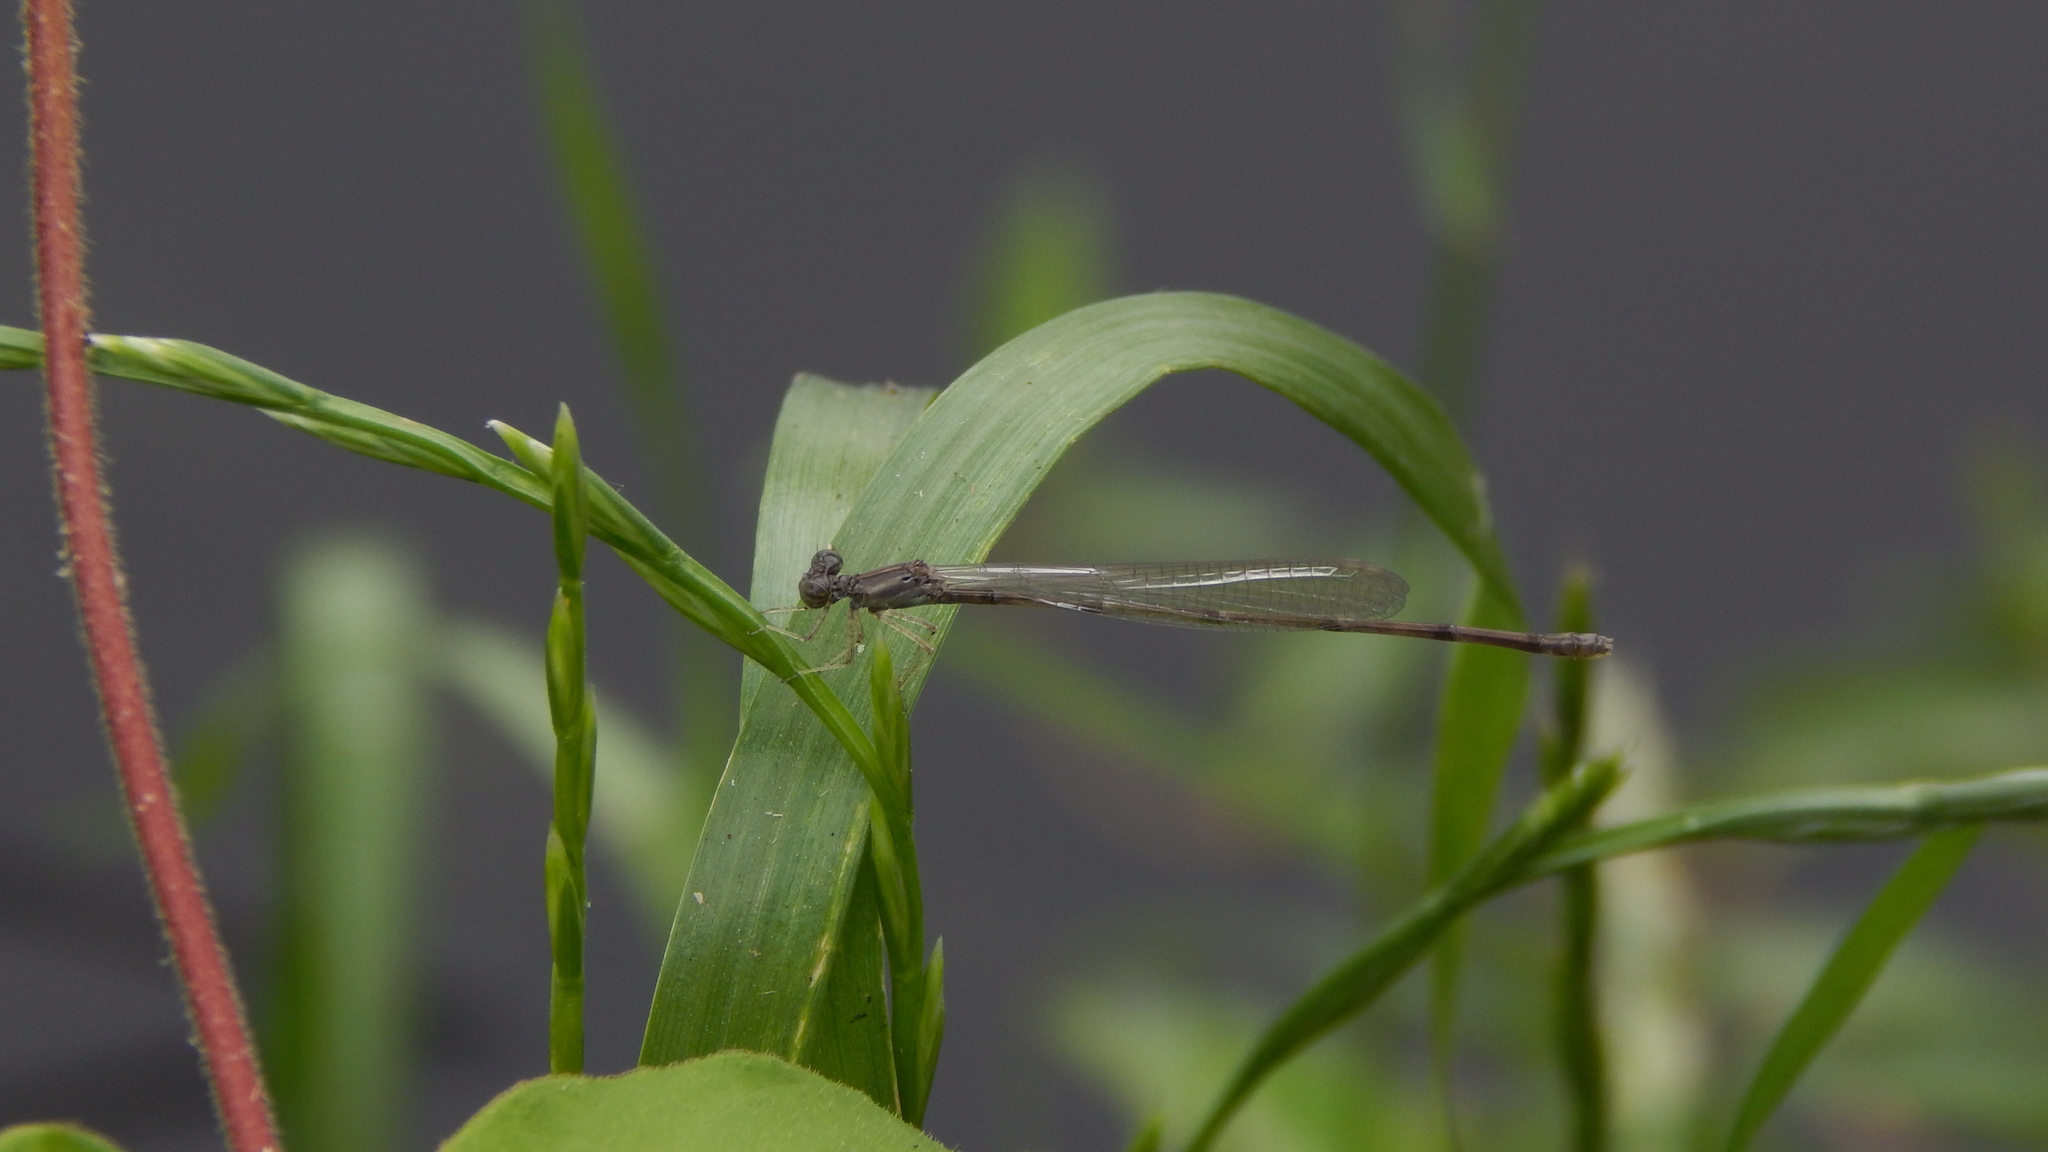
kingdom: Animalia
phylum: Arthropoda
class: Insecta
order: Odonata
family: Coenagrionidae
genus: Enallagma
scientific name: Enallagma
